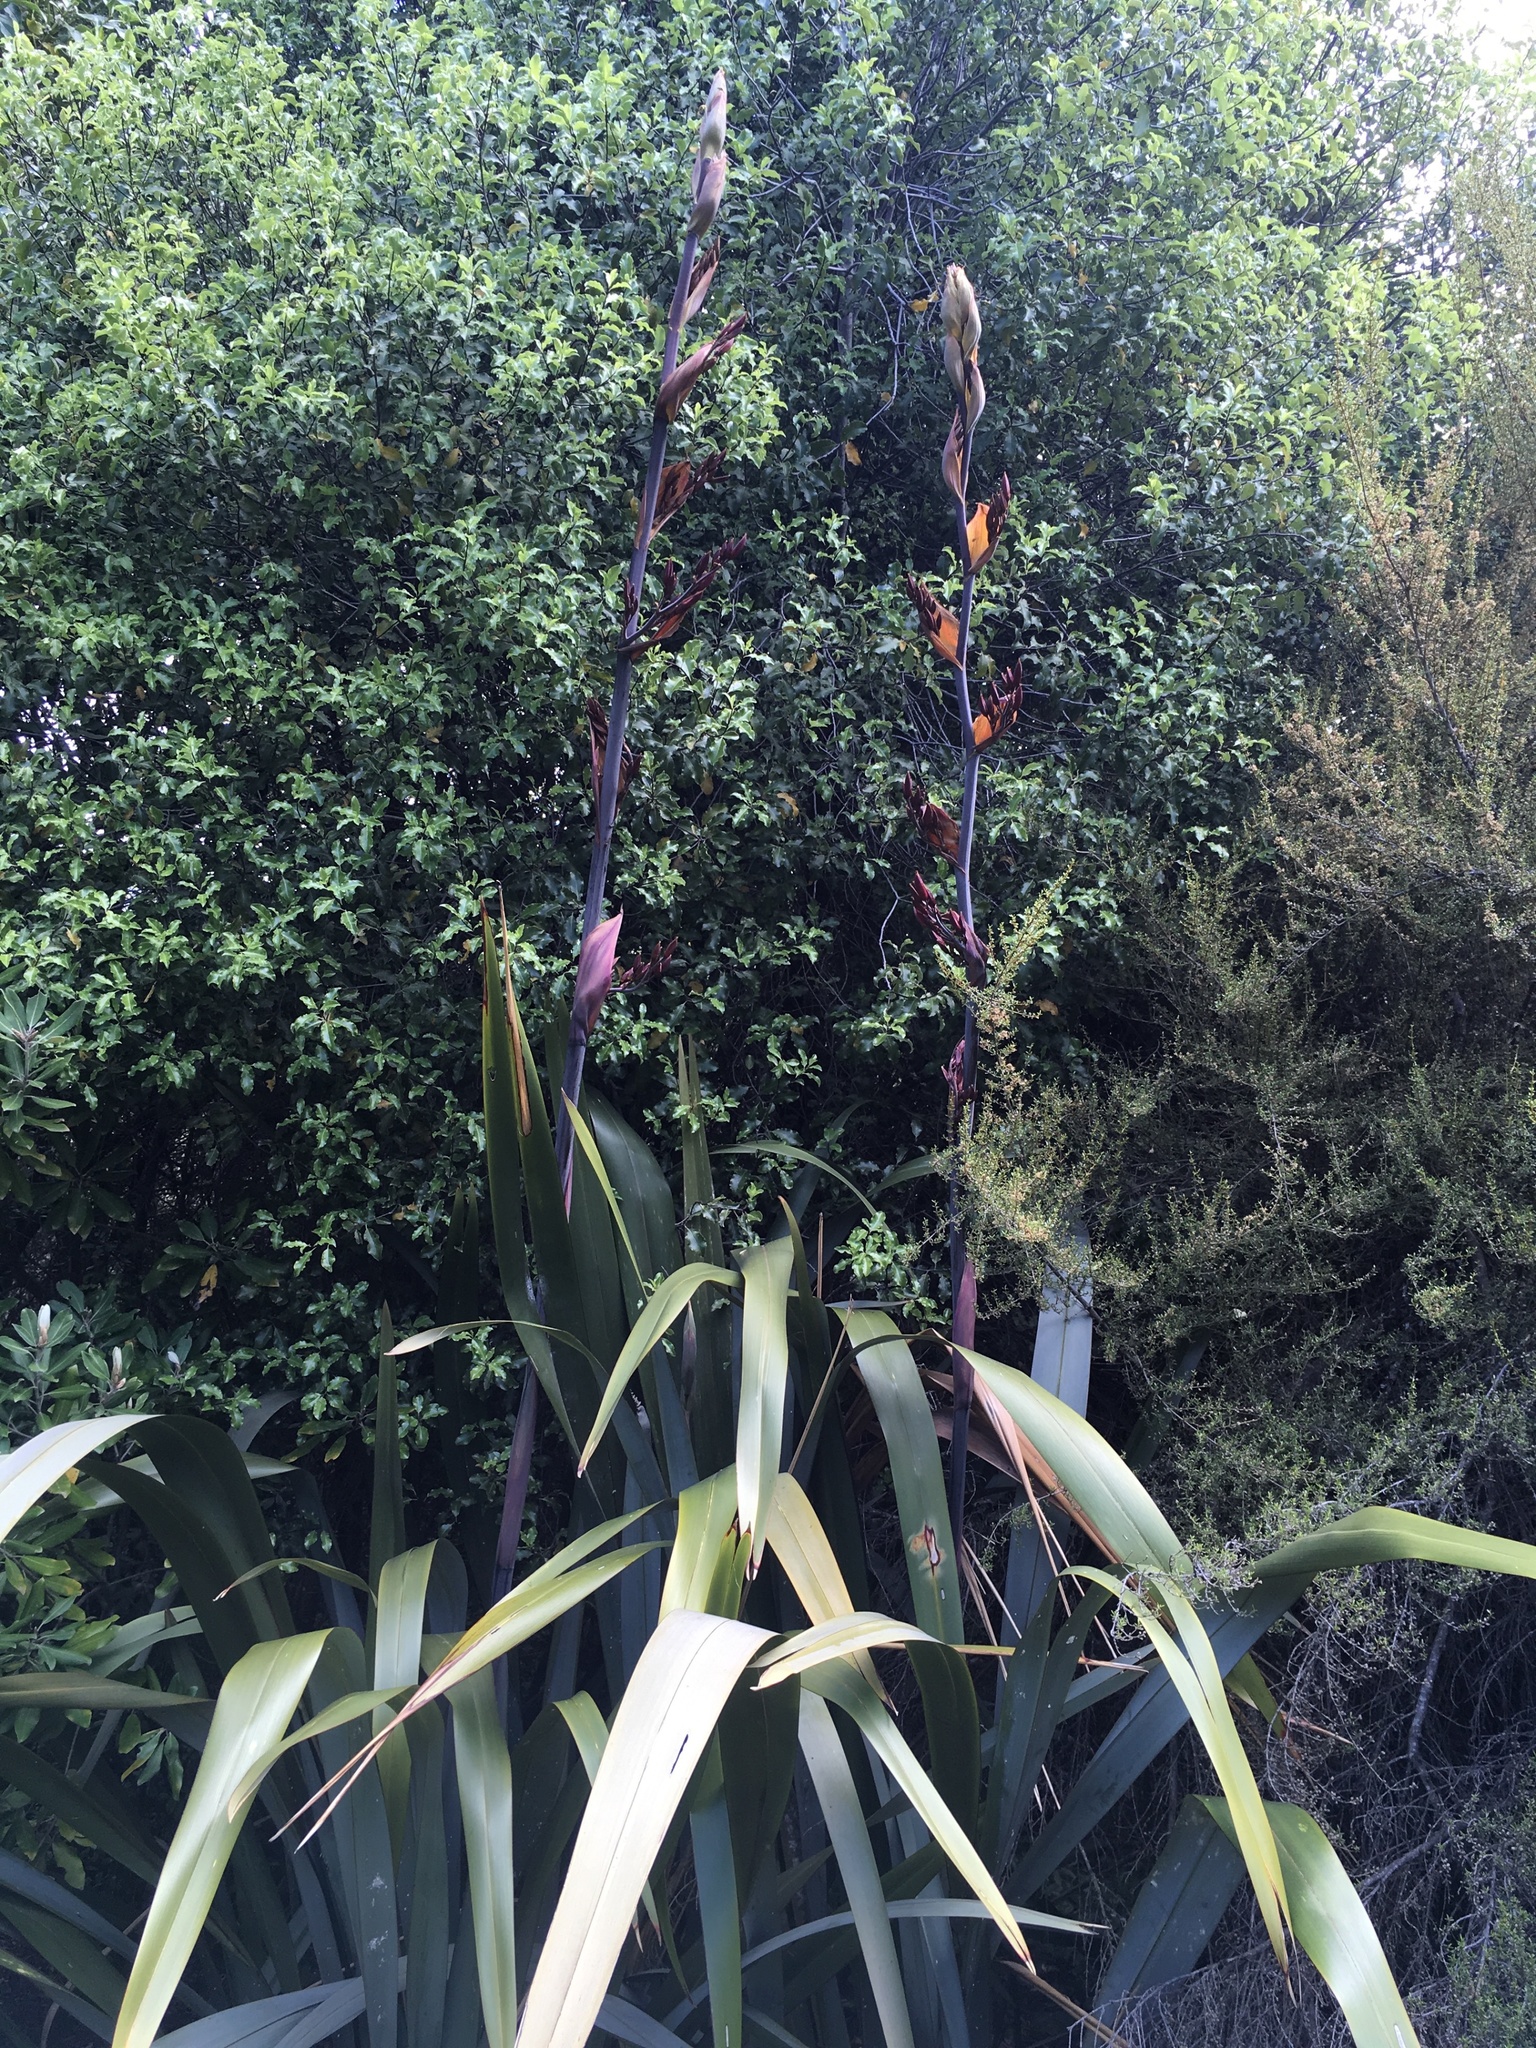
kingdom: Plantae
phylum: Tracheophyta
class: Liliopsida
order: Asparagales
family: Asphodelaceae
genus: Phormium
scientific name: Phormium tenax
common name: New zealand flax
